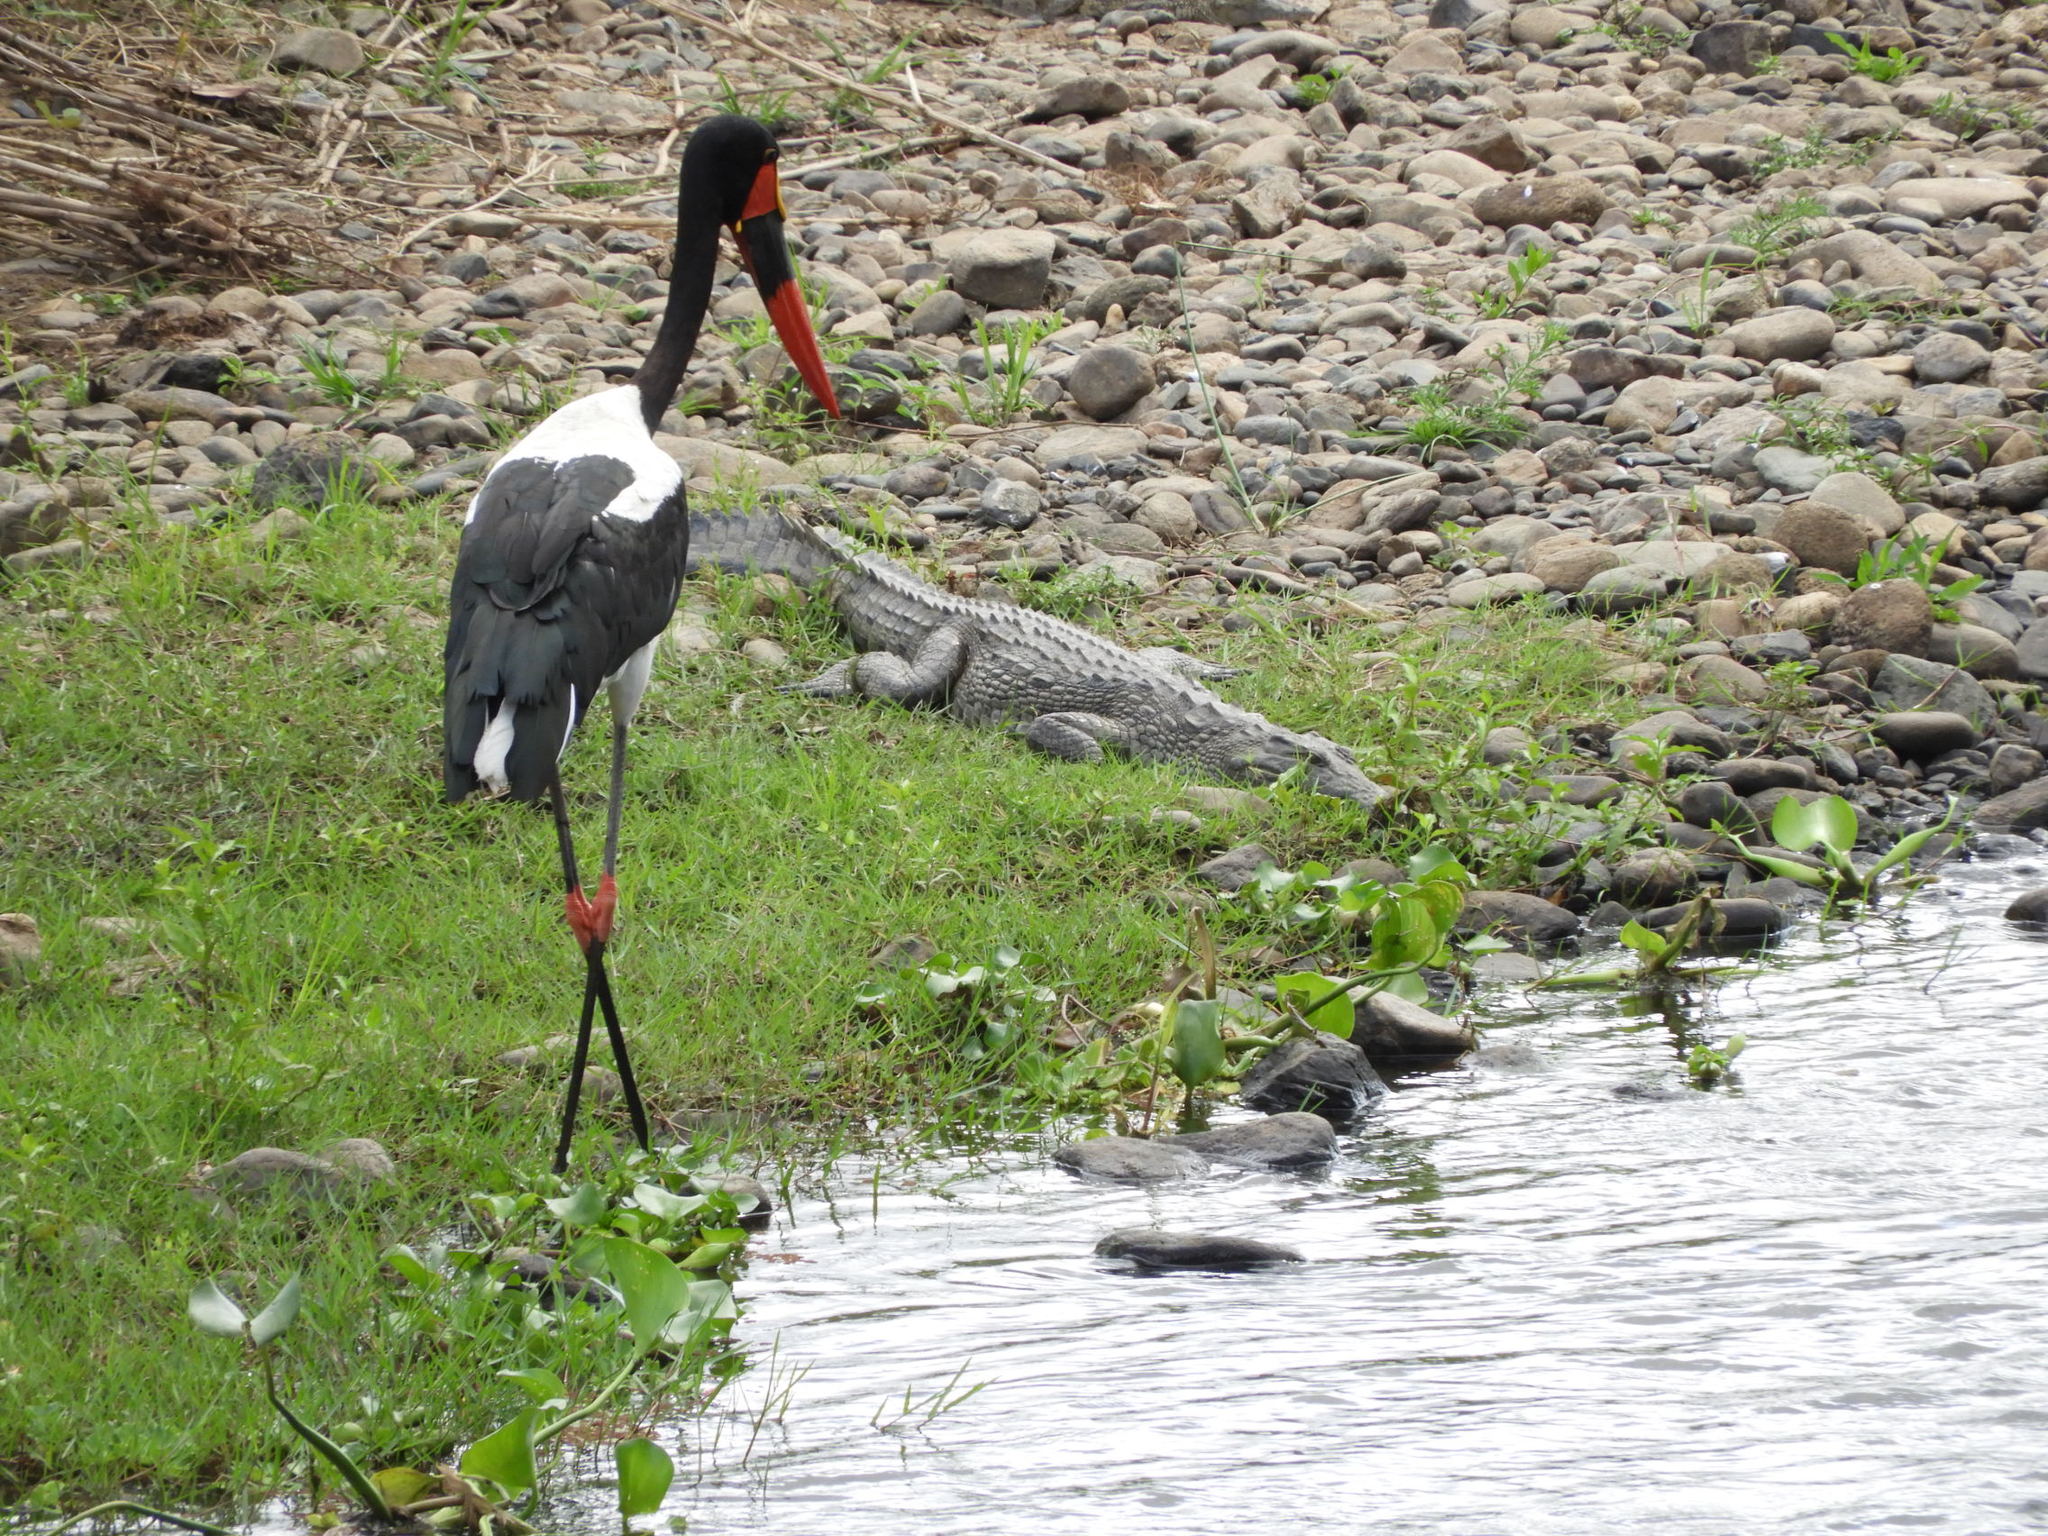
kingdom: Animalia
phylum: Chordata
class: Aves
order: Ciconiiformes
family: Ciconiidae
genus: Ephippiorhynchus
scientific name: Ephippiorhynchus senegalensis
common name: Saddle-billed stork
